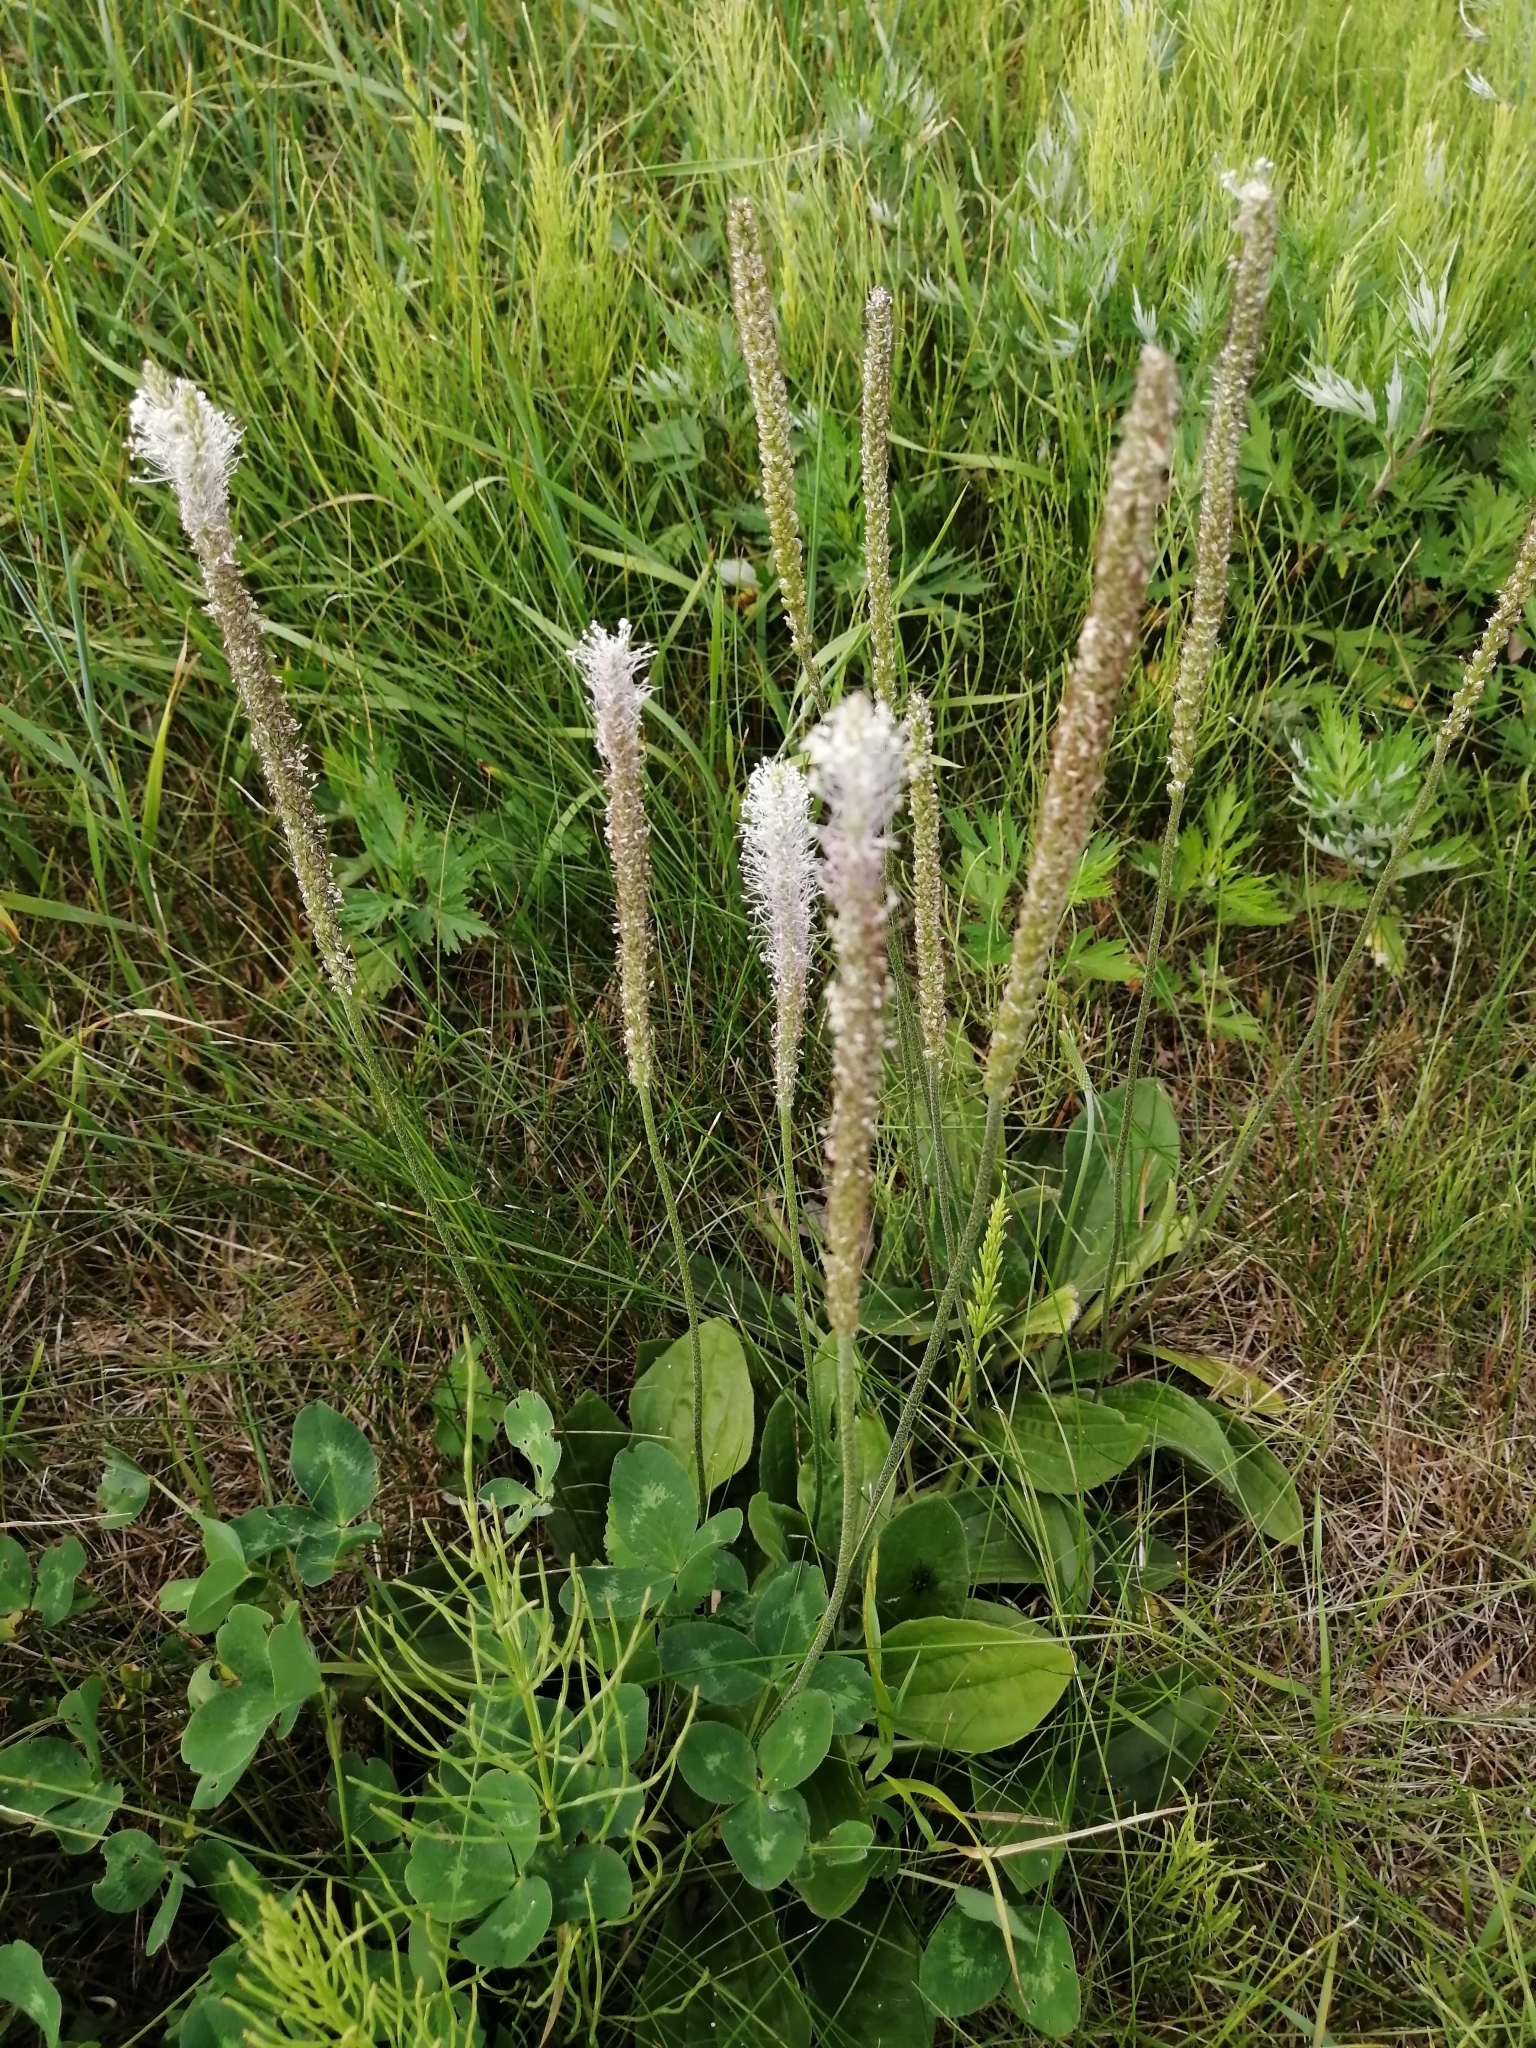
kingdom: Plantae
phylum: Tracheophyta
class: Magnoliopsida
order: Lamiales
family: Plantaginaceae
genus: Plantago
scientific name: Plantago media
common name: Hoary plantain
